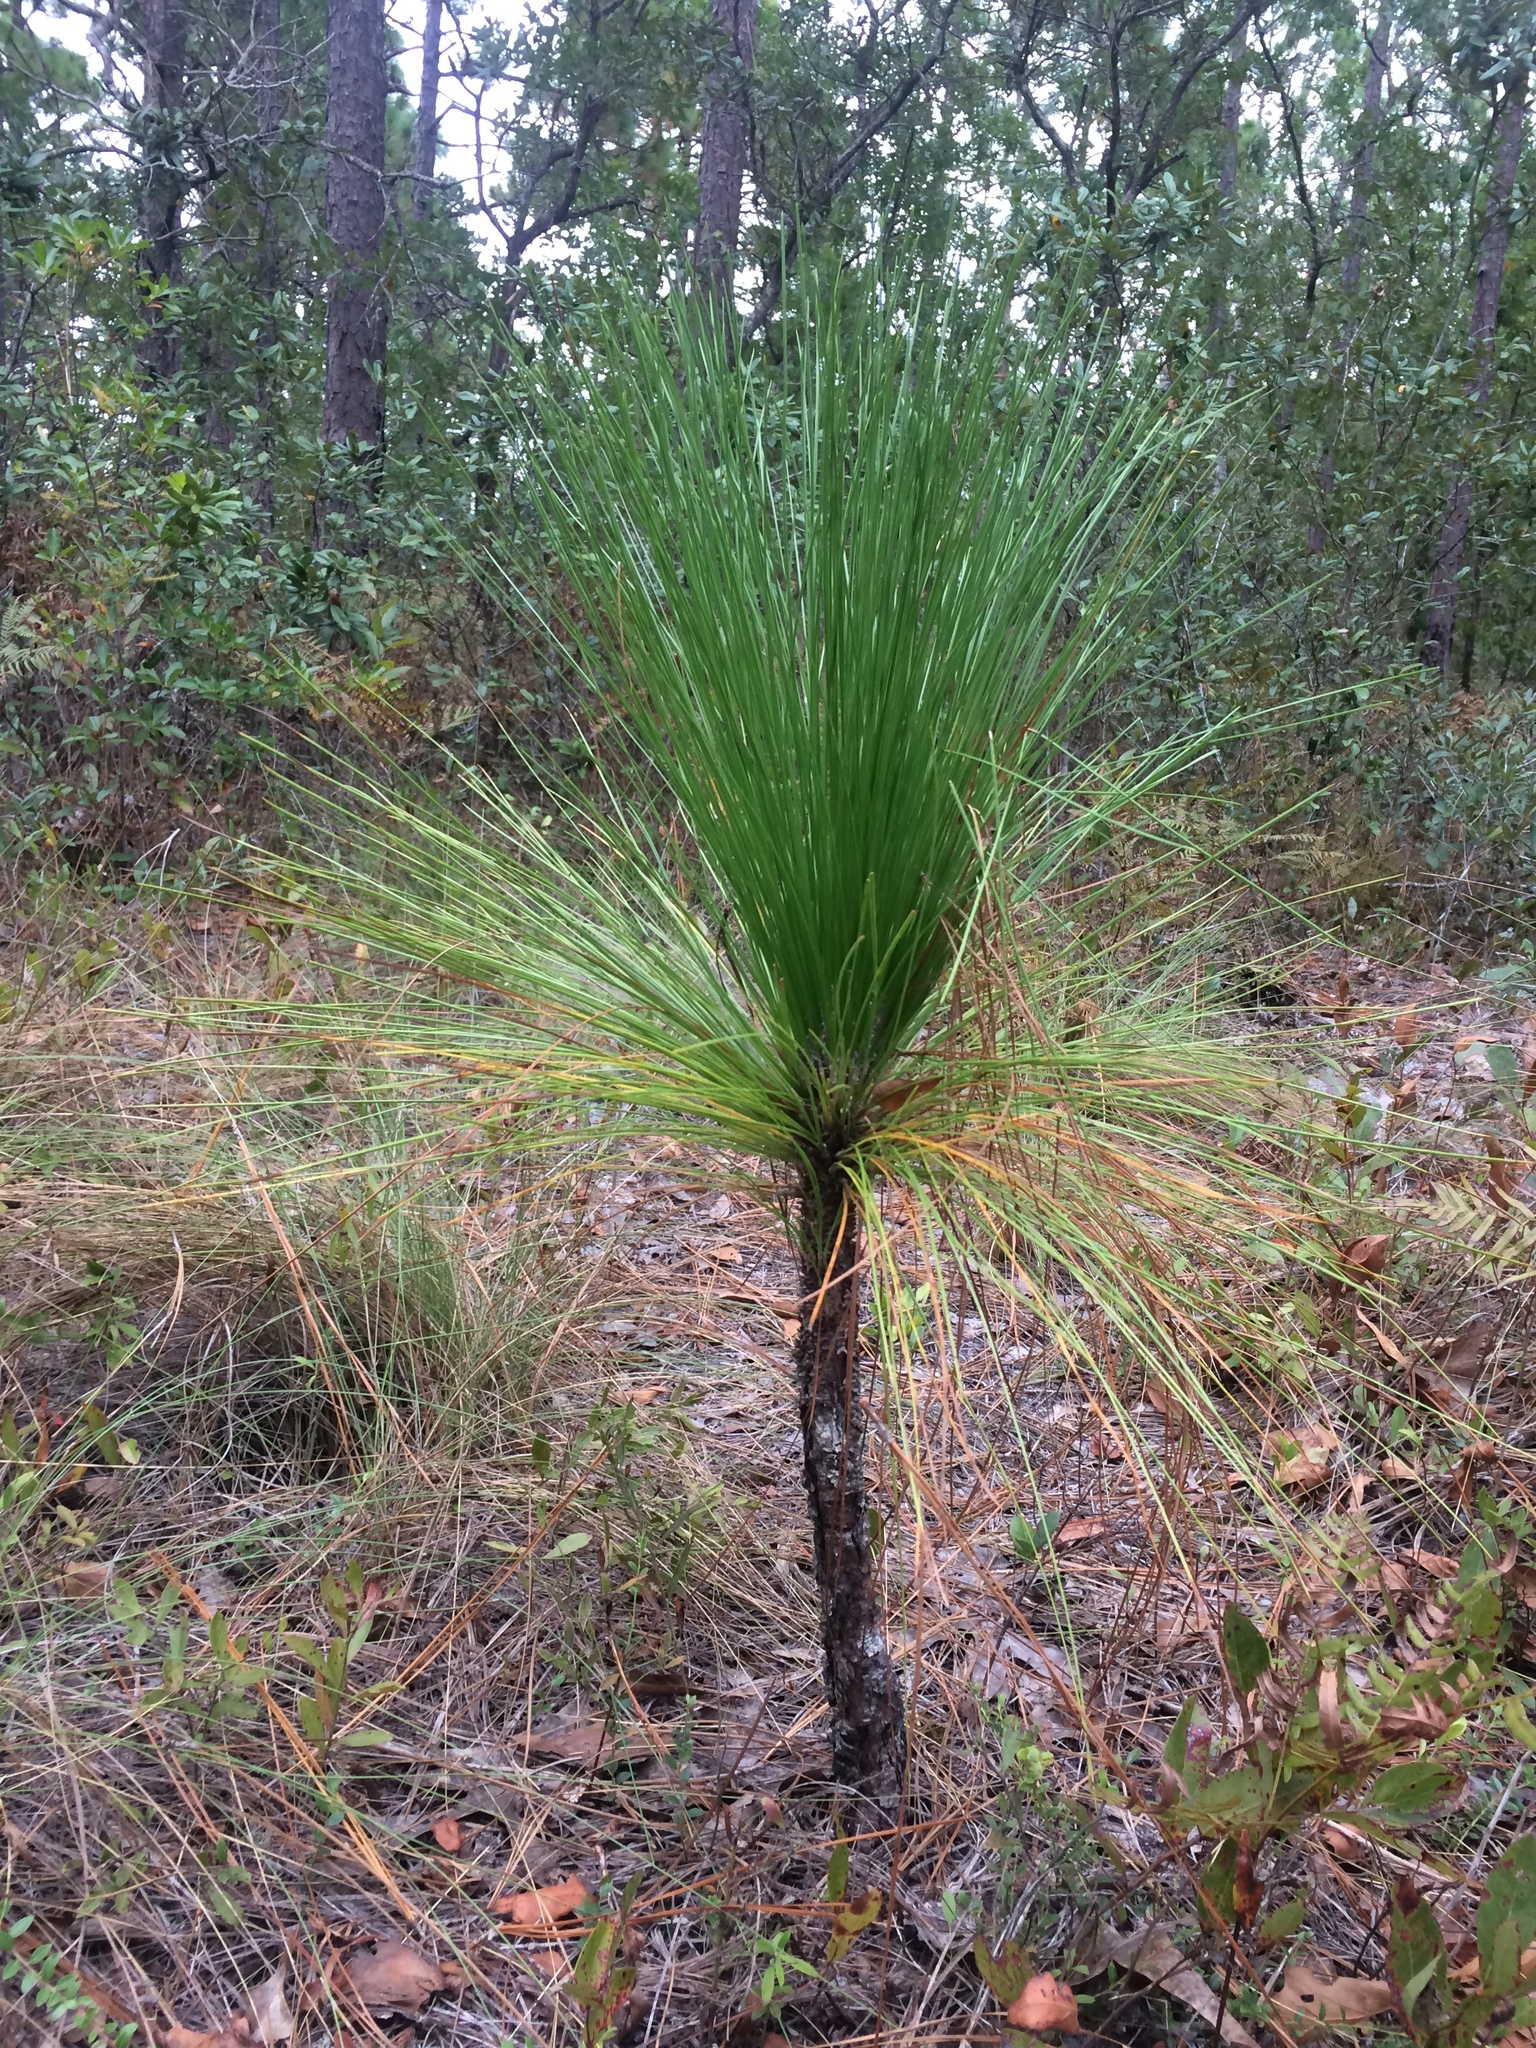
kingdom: Plantae
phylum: Tracheophyta
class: Pinopsida
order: Pinales
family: Pinaceae
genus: Pinus
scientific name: Pinus palustris
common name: Longleaf pine
